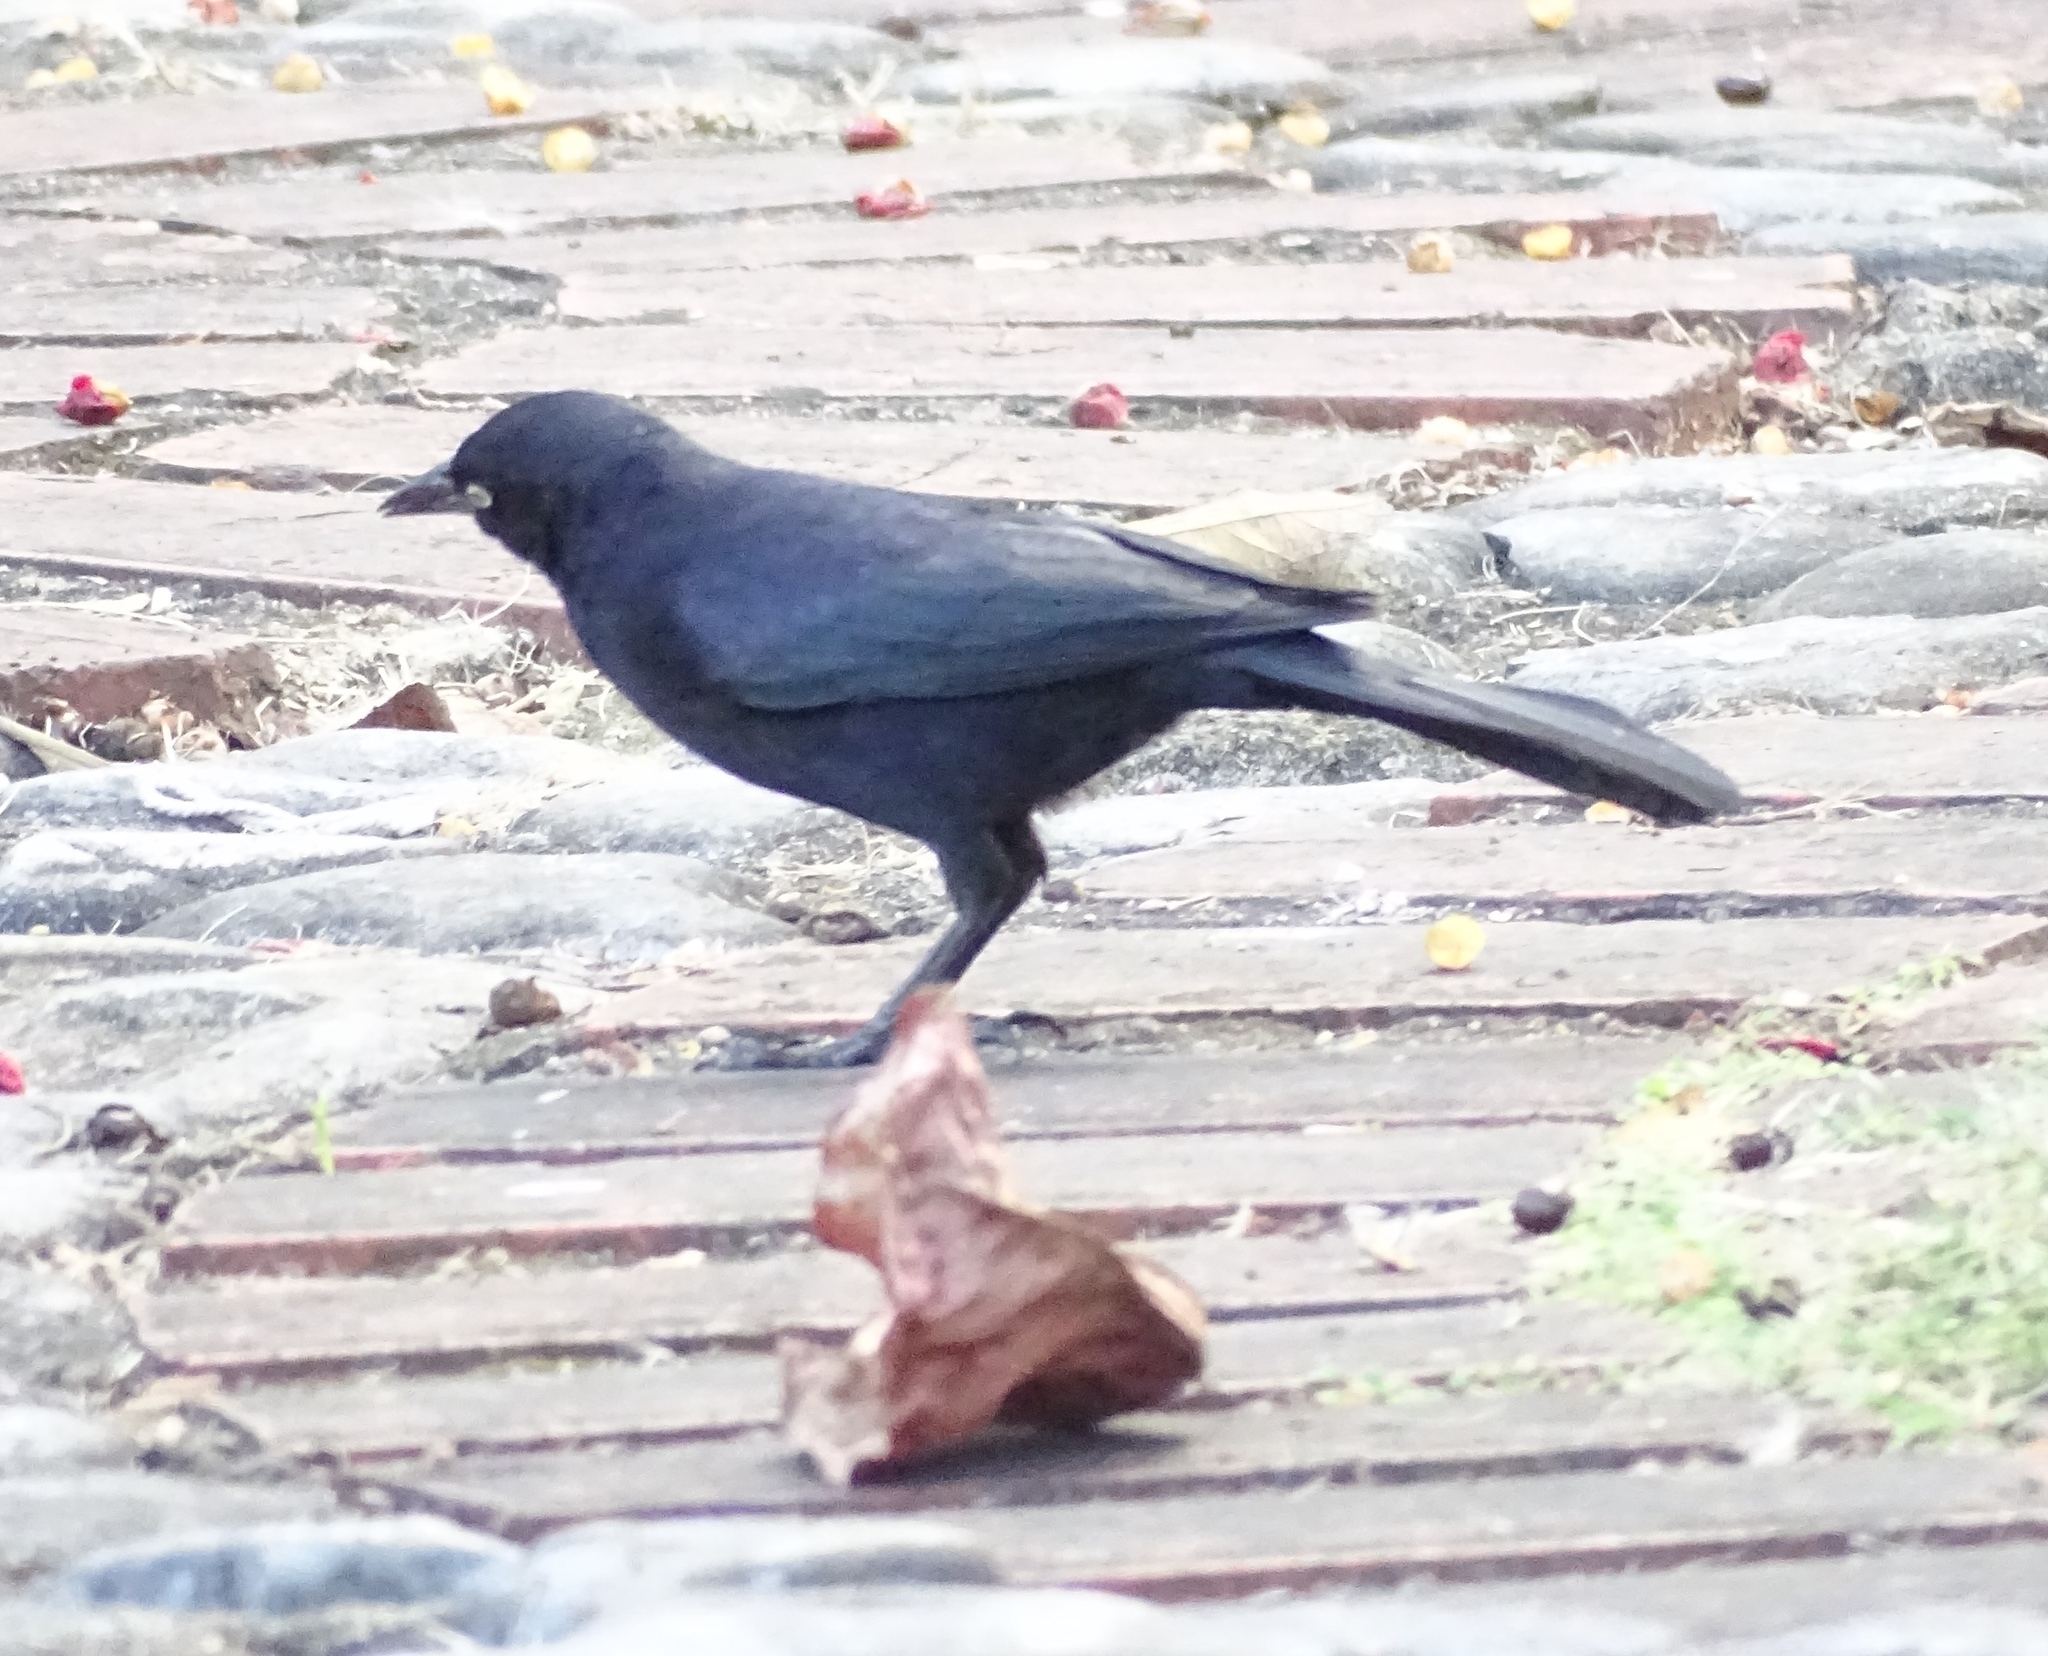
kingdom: Animalia
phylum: Chordata
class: Aves
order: Passeriformes
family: Icteridae
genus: Quiscalus
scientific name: Quiscalus niger
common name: Greater antillean grackle
